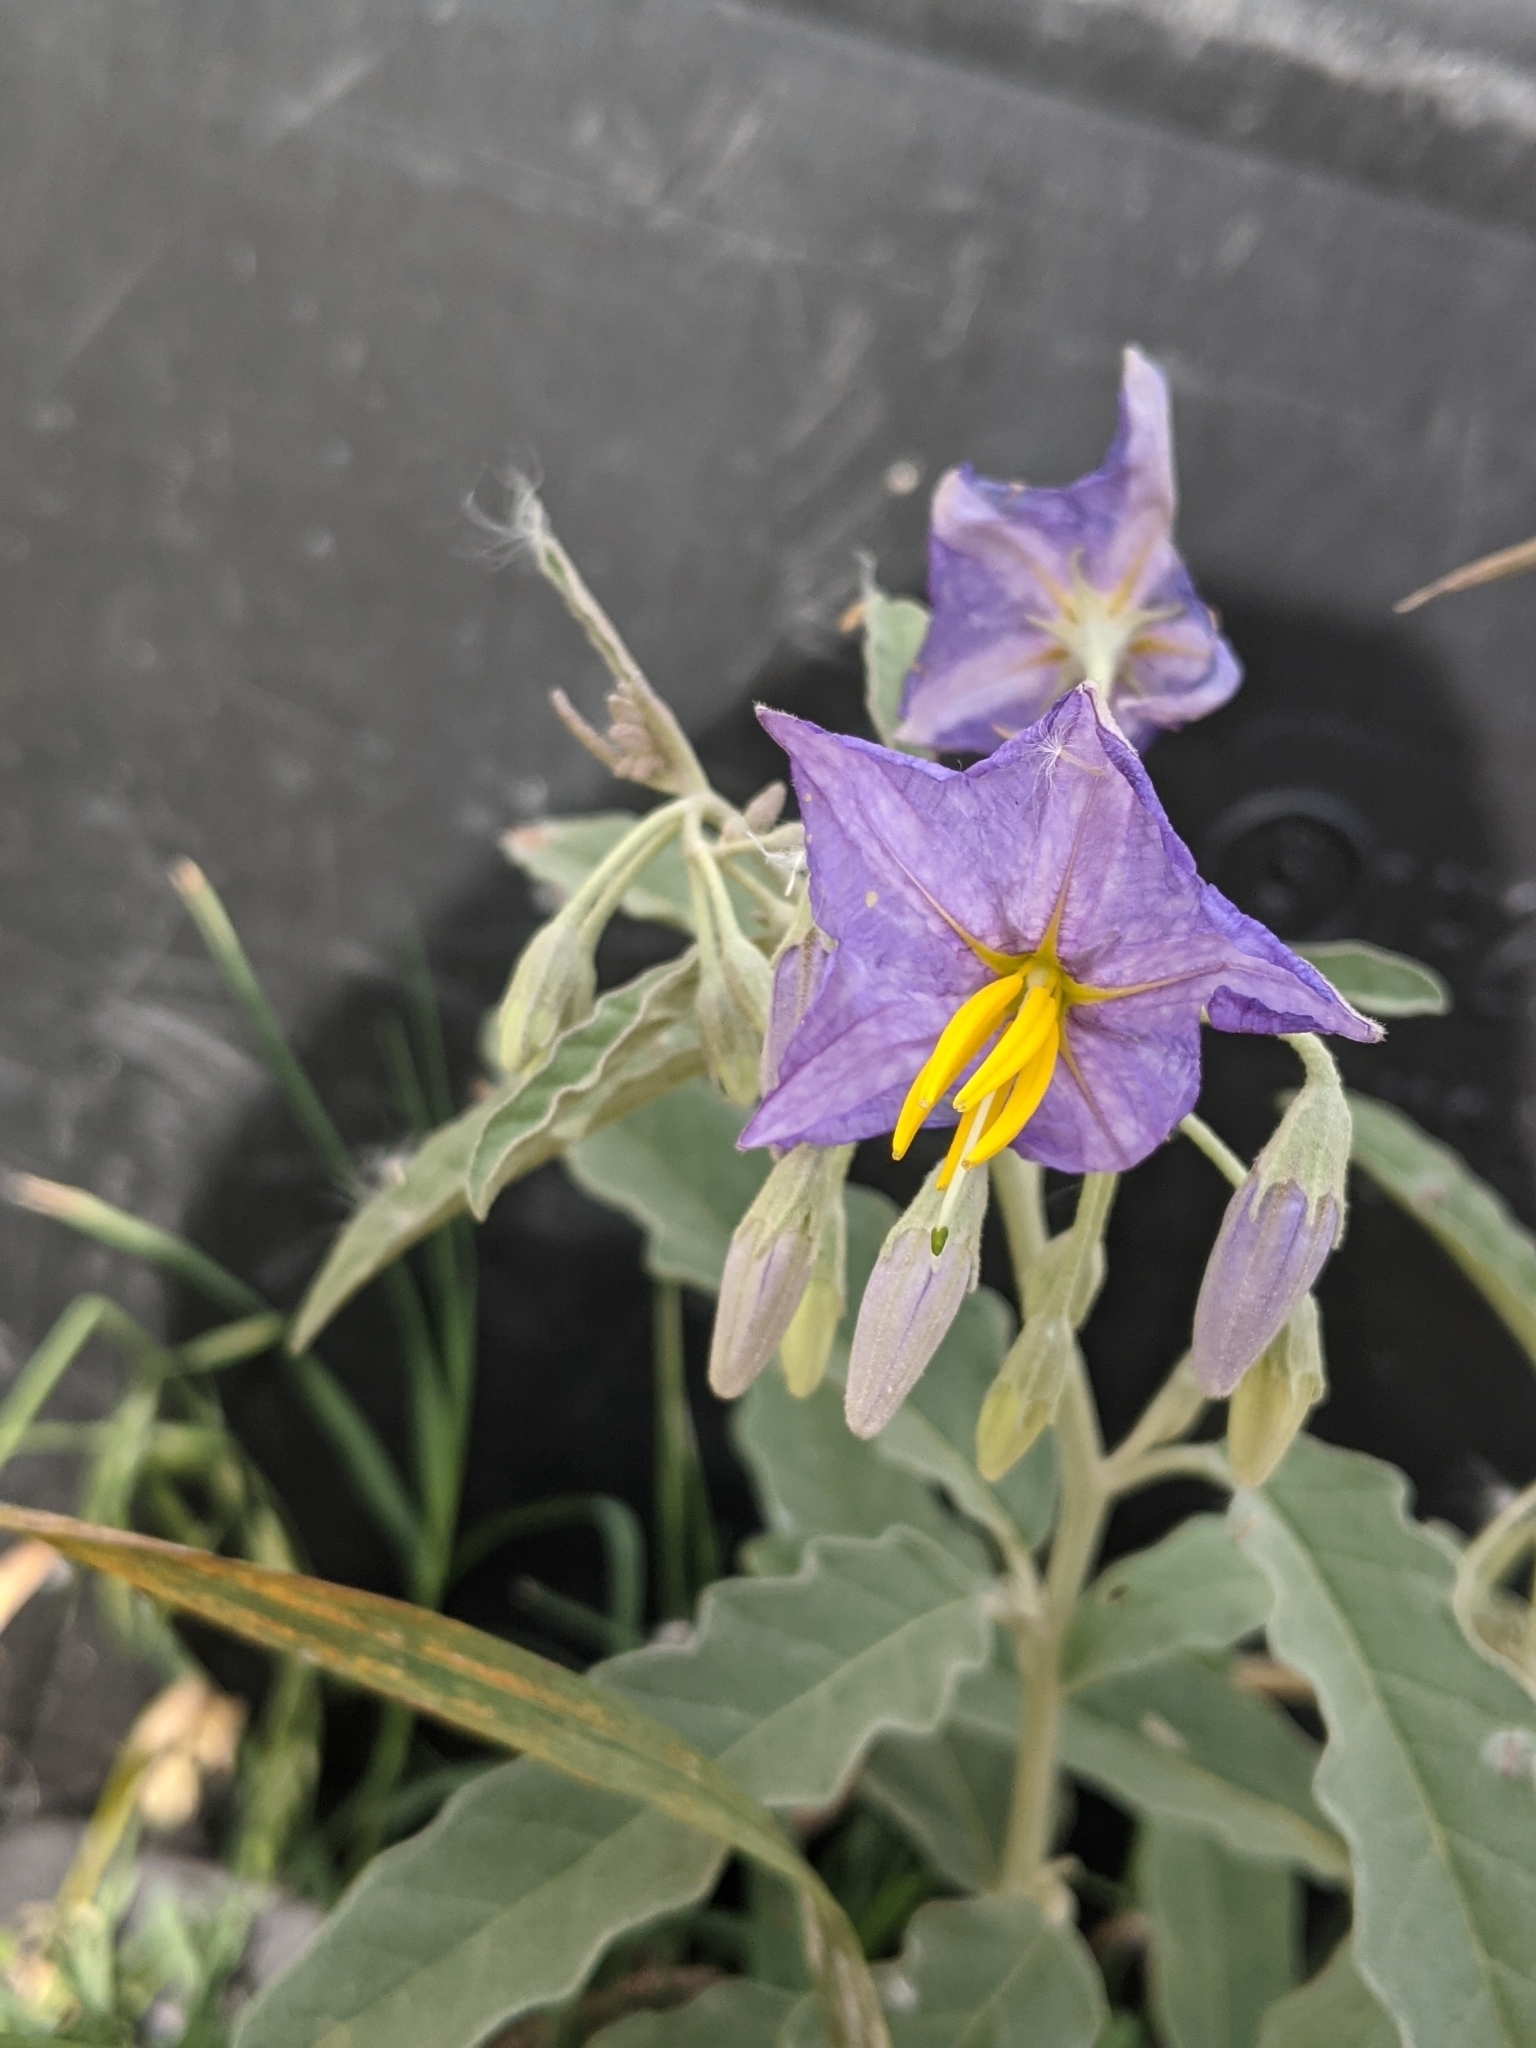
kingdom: Plantae
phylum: Tracheophyta
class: Magnoliopsida
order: Solanales
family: Solanaceae
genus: Solanum
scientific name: Solanum elaeagnifolium
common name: Silverleaf nightshade
